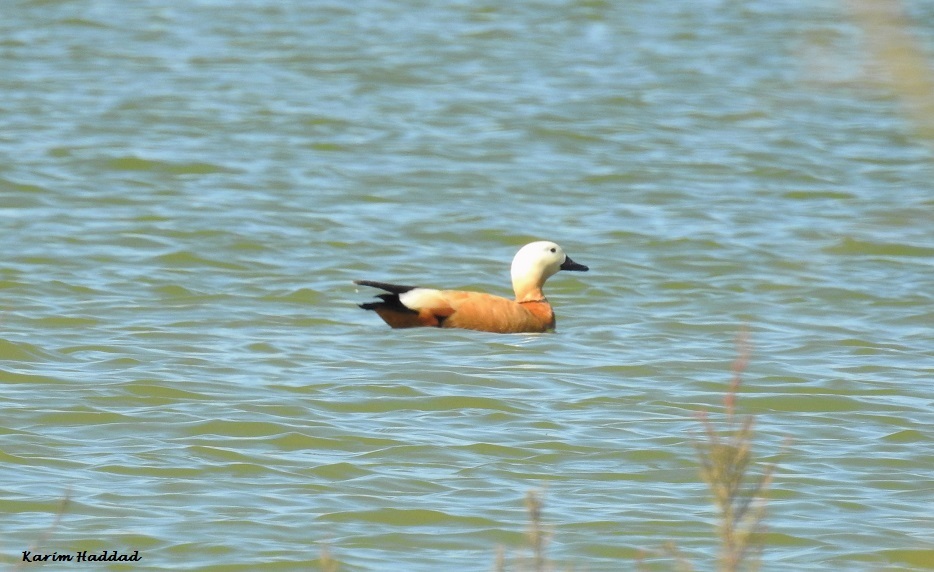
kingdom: Animalia
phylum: Chordata
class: Aves
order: Anseriformes
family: Anatidae
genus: Tadorna
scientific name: Tadorna ferruginea
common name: Ruddy shelduck
